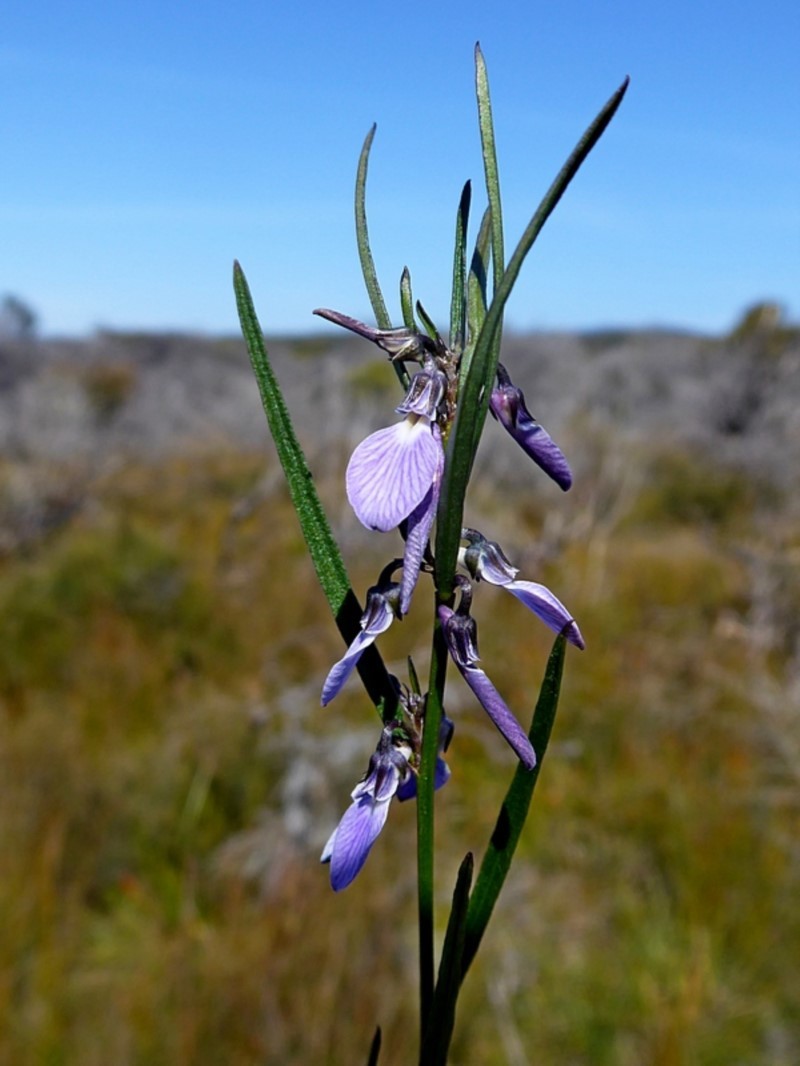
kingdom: Plantae
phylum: Tracheophyta
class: Magnoliopsida
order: Malpighiales
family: Violaceae
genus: Pigea
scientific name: Pigea vernonii
